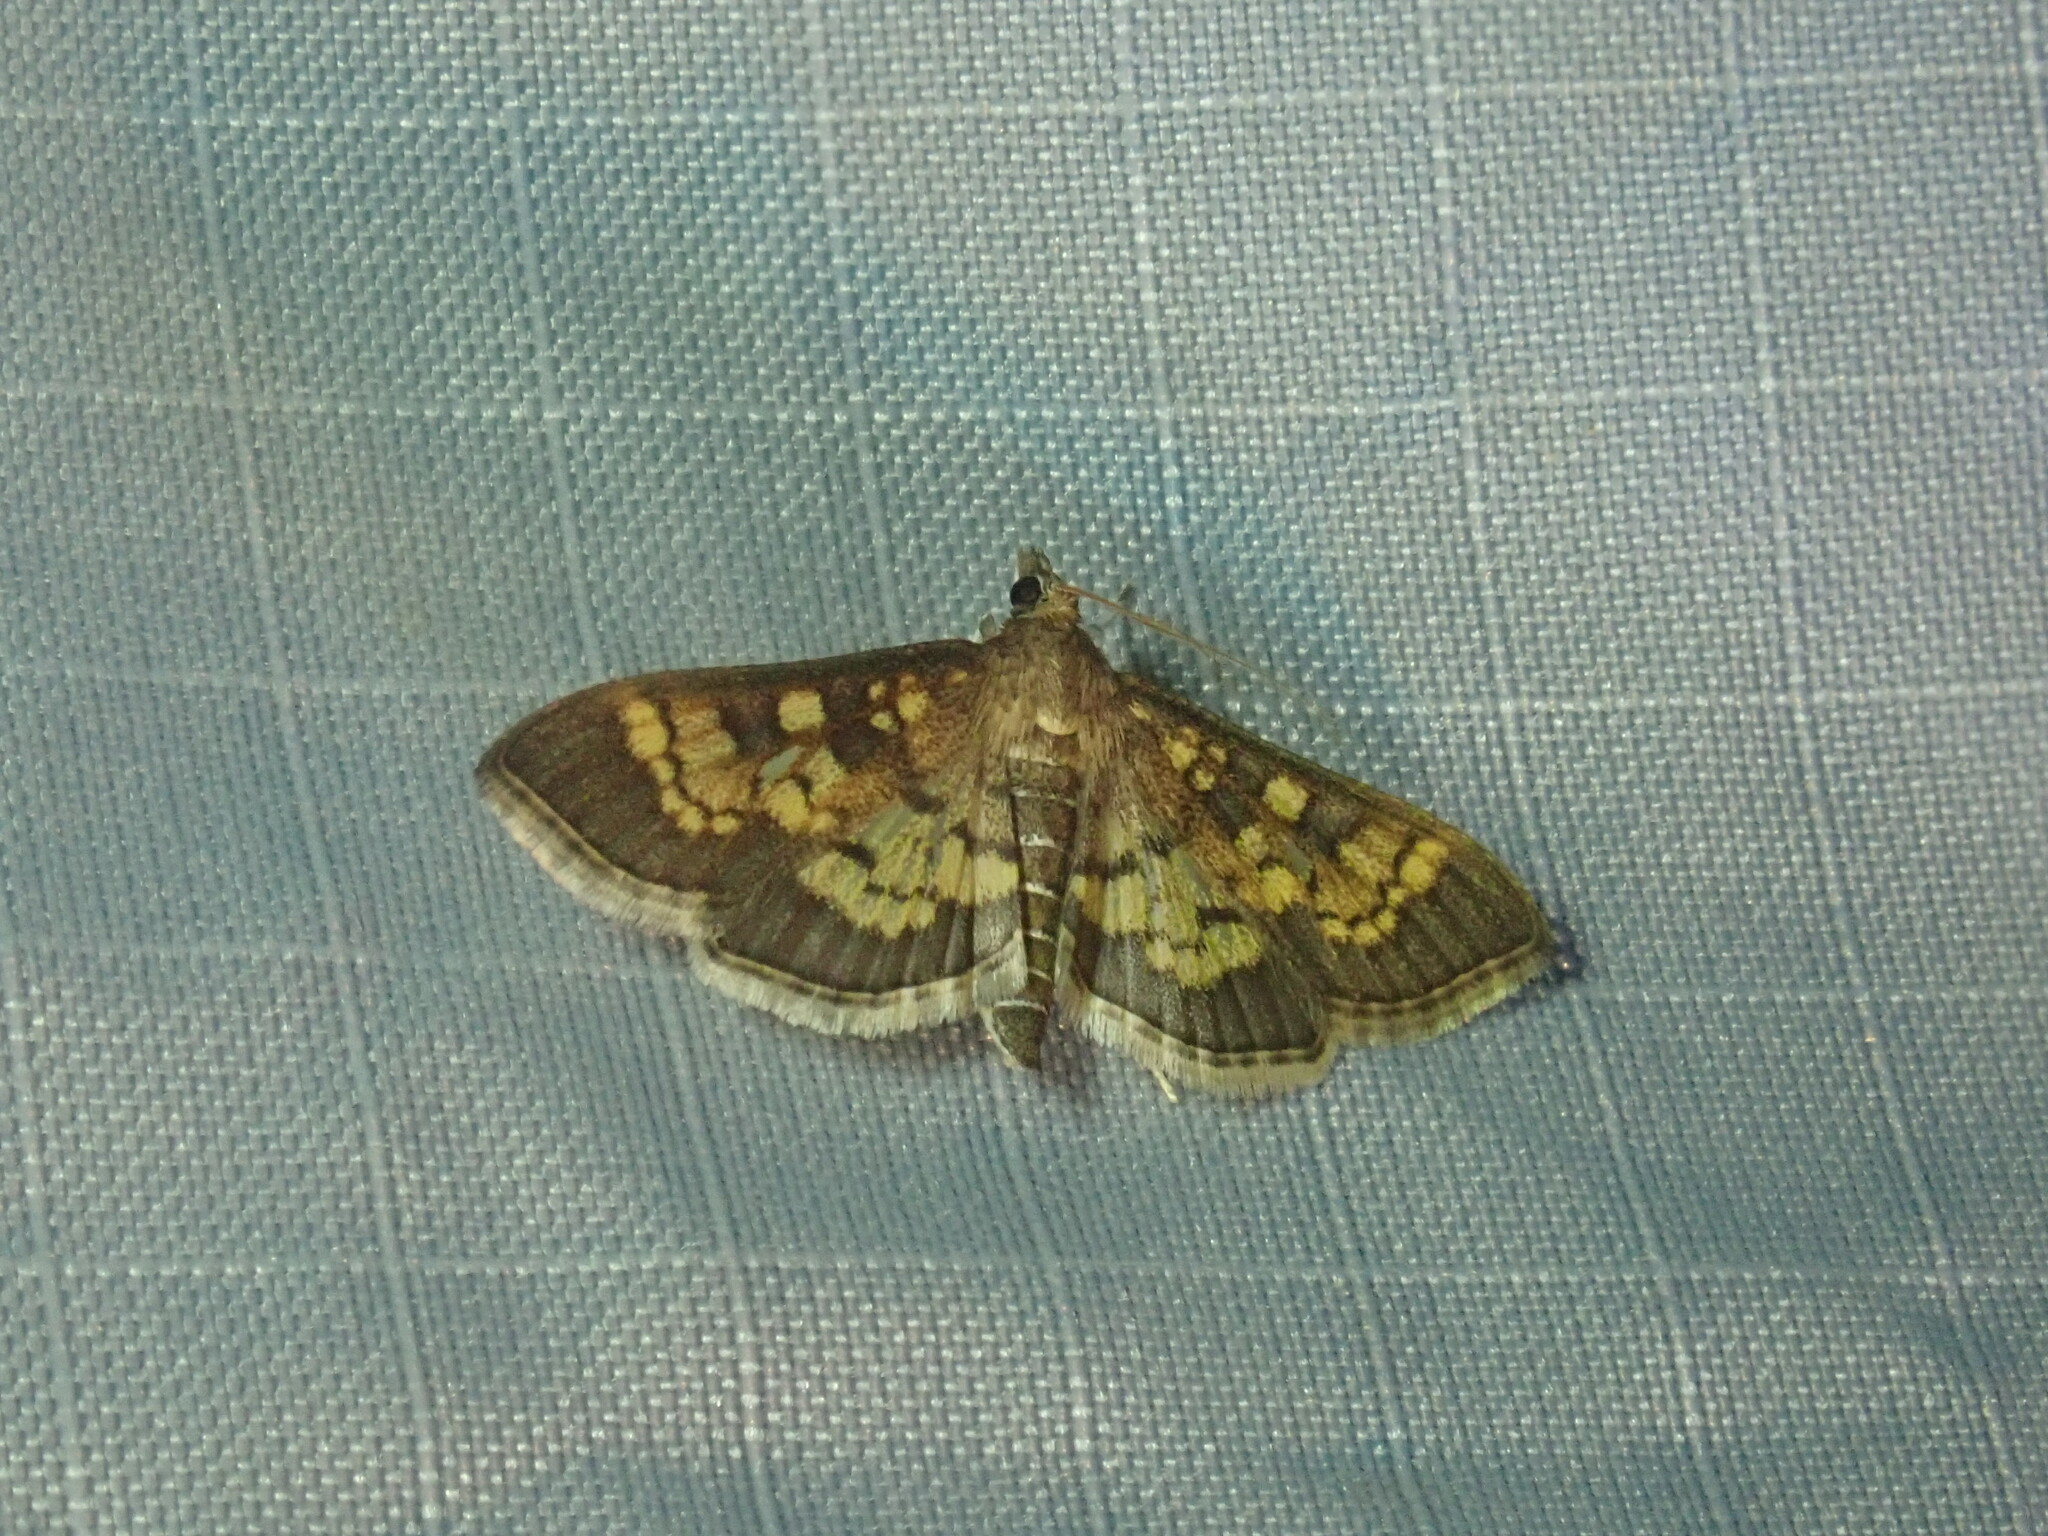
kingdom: Animalia
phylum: Arthropoda
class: Insecta
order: Lepidoptera
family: Crambidae
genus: Epipagis
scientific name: Epipagis adipaloides
